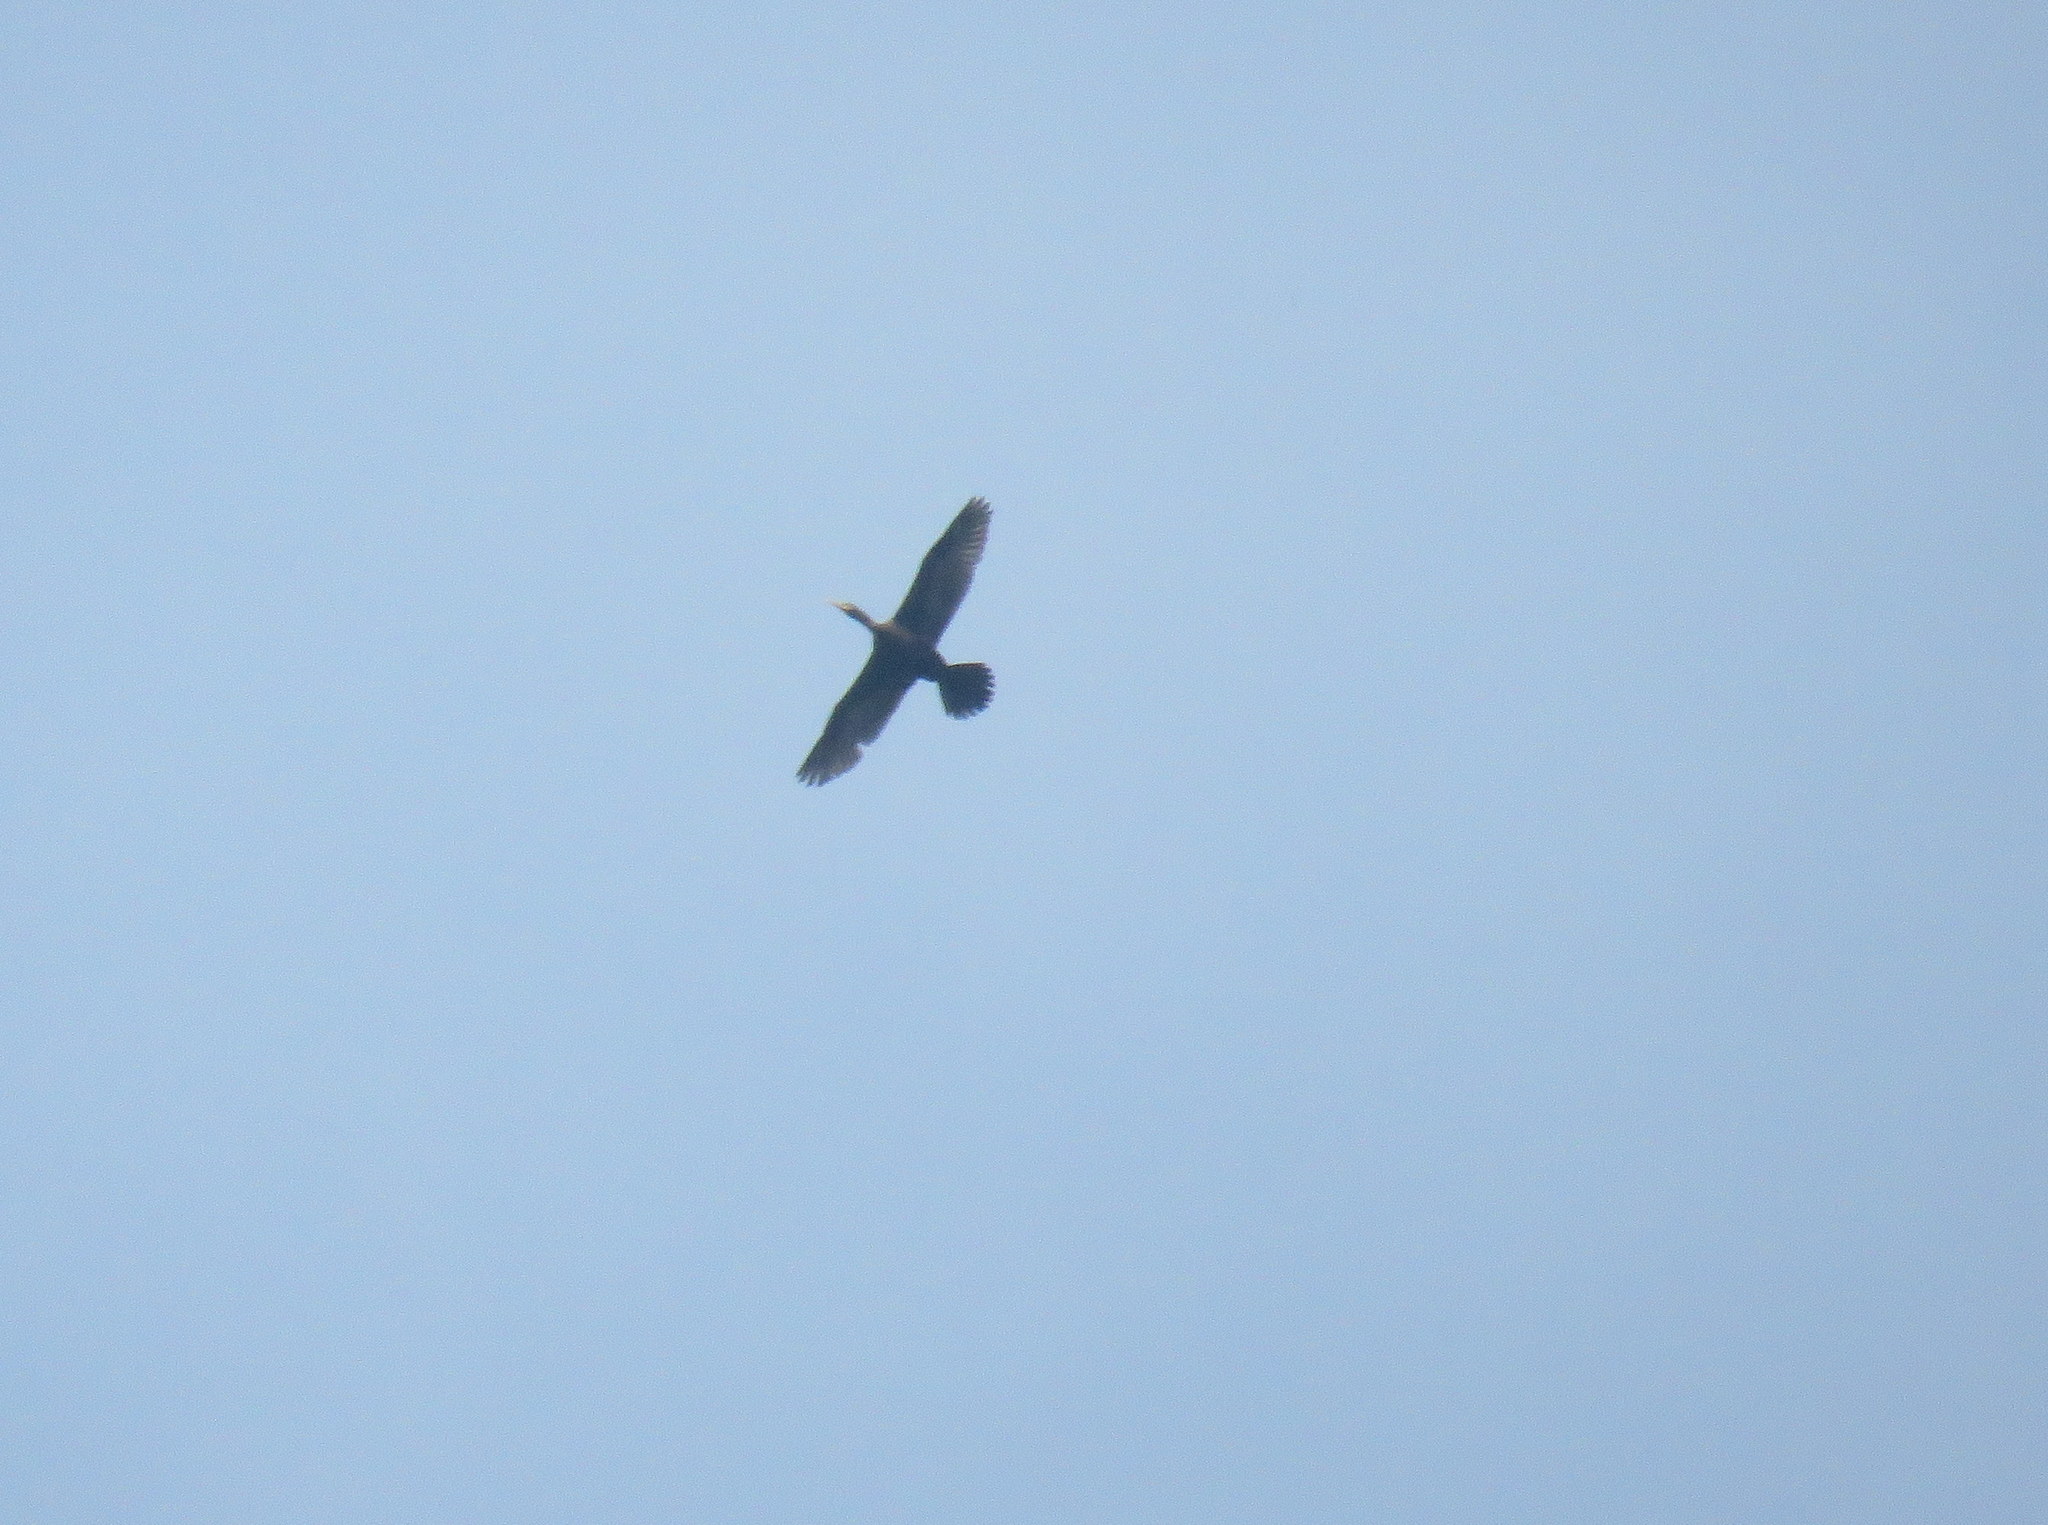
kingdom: Animalia
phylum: Chordata
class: Aves
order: Suliformes
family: Phalacrocoracidae
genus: Phalacrocorax
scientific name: Phalacrocorax brasilianus
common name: Neotropic cormorant
